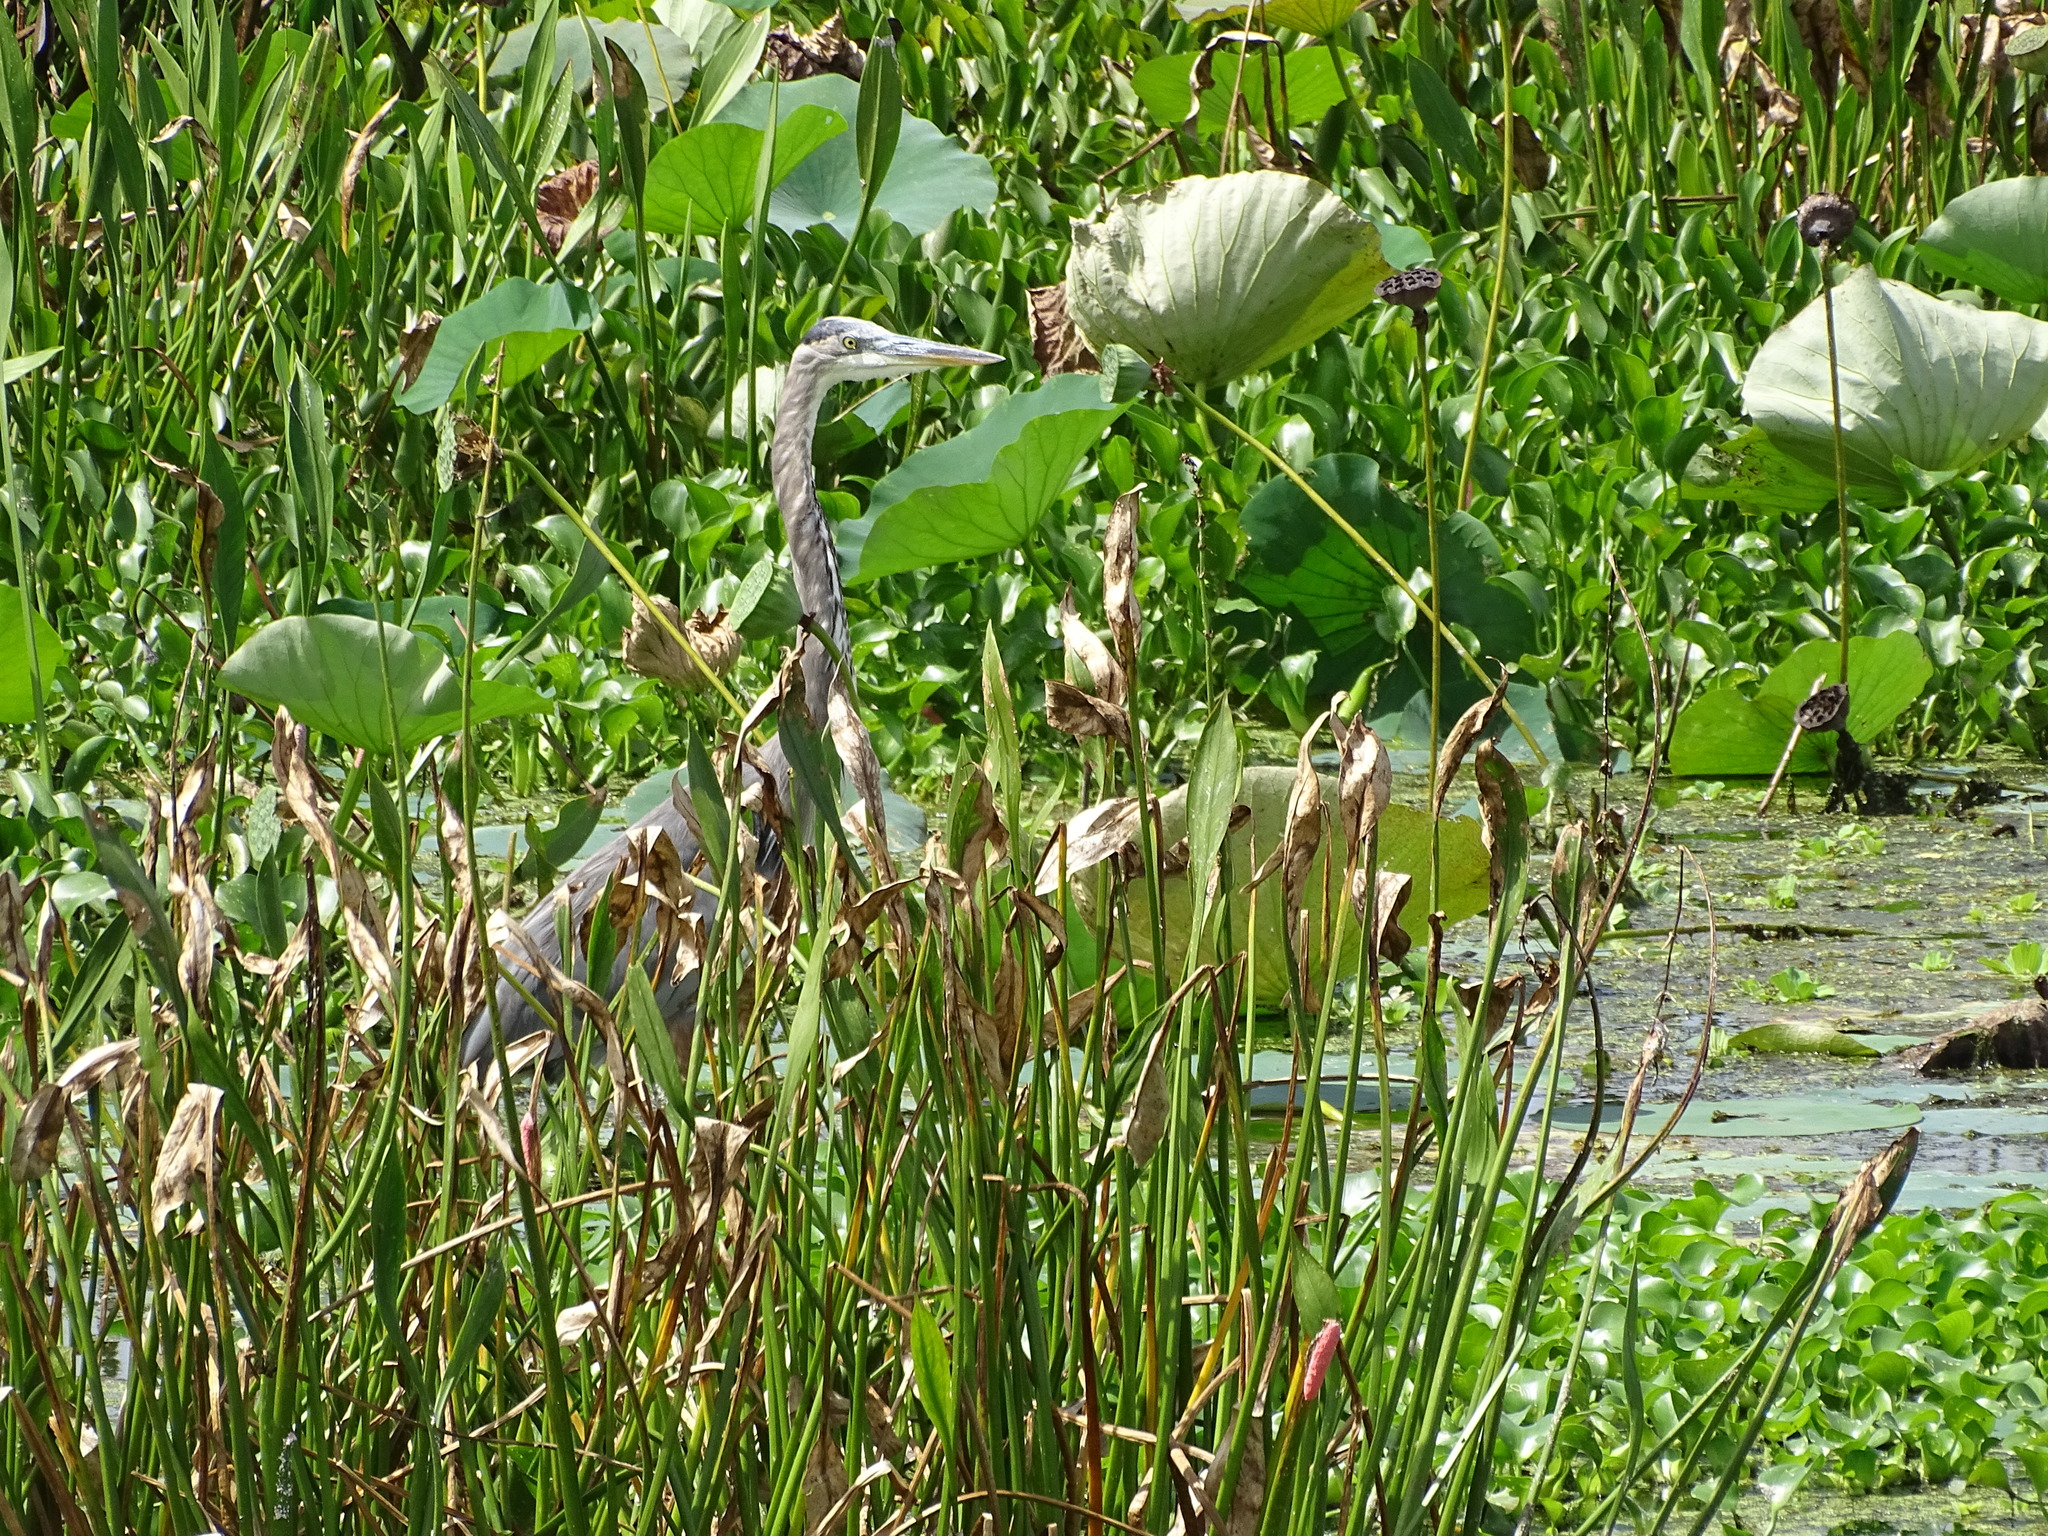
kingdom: Animalia
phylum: Chordata
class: Aves
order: Pelecaniformes
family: Ardeidae
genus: Ardea
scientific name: Ardea herodias
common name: Great blue heron
